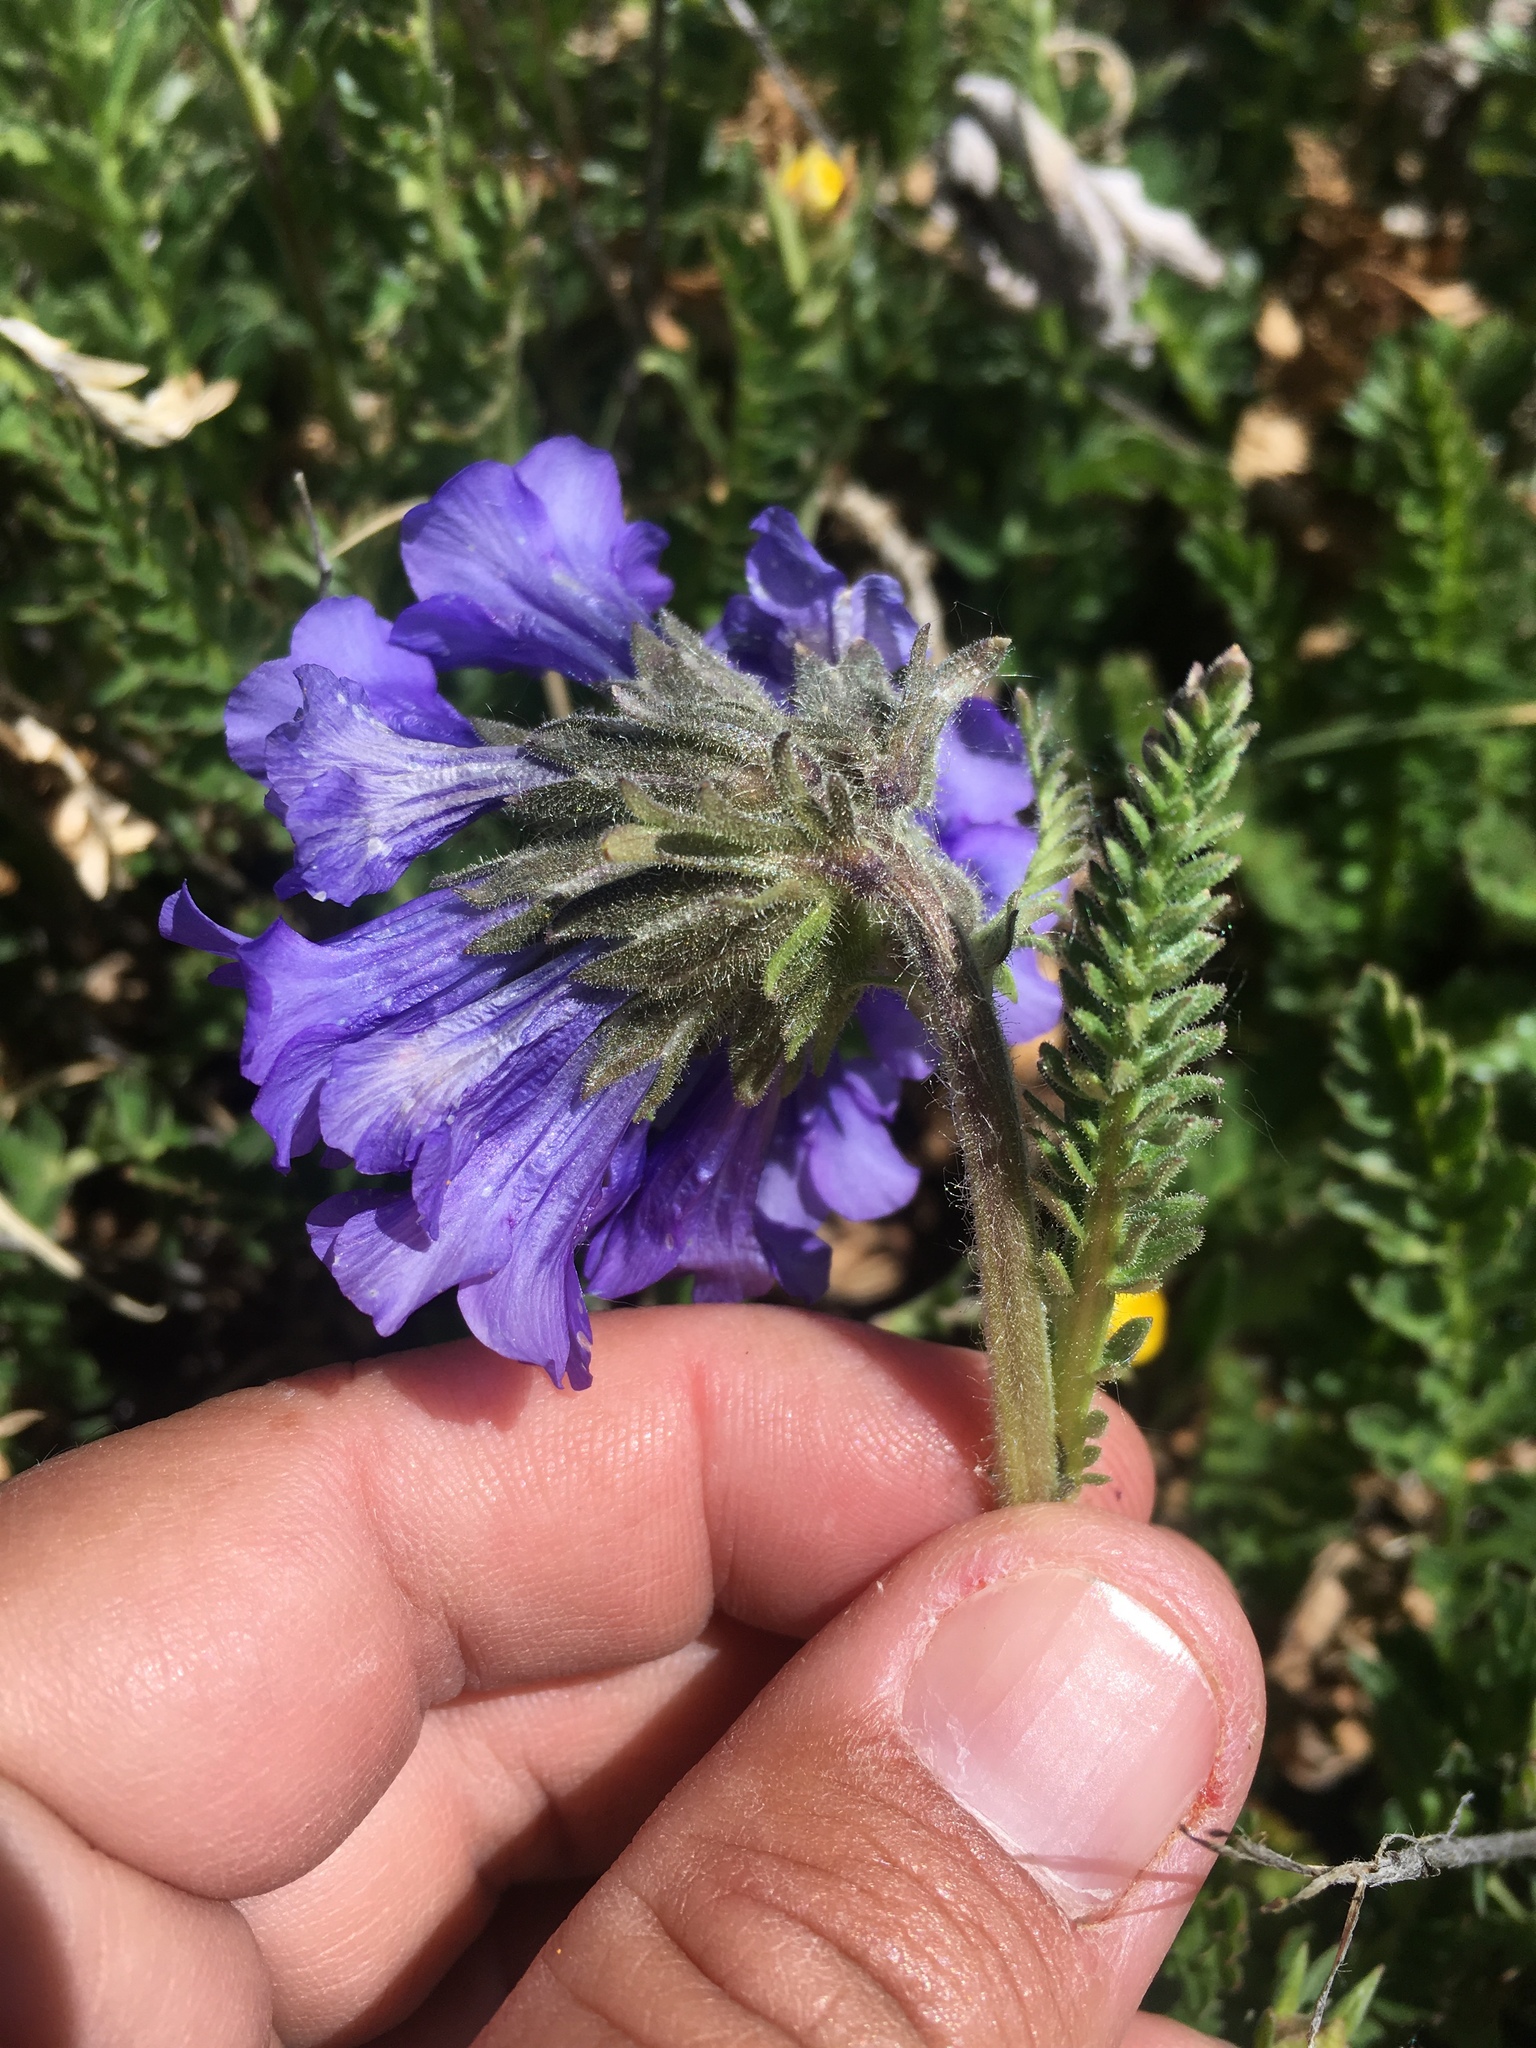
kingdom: Plantae
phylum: Tracheophyta
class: Magnoliopsida
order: Ericales
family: Polemoniaceae
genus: Polemonium
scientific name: Polemonium viscosum
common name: Skunk jacob's-ladder
